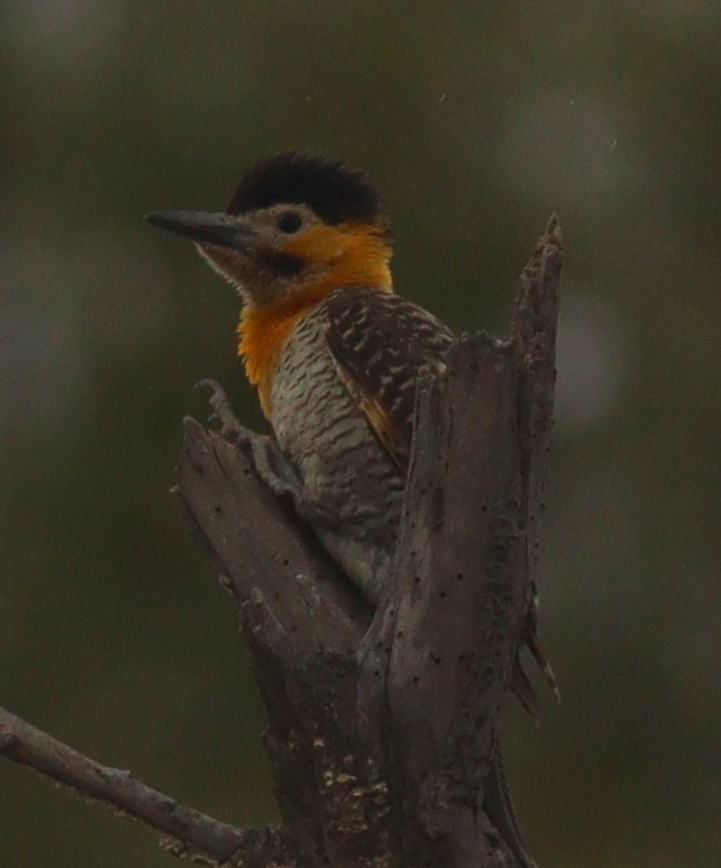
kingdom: Animalia
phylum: Chordata
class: Aves
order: Piciformes
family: Picidae
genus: Colaptes
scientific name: Colaptes campestris
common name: Campo flicker
